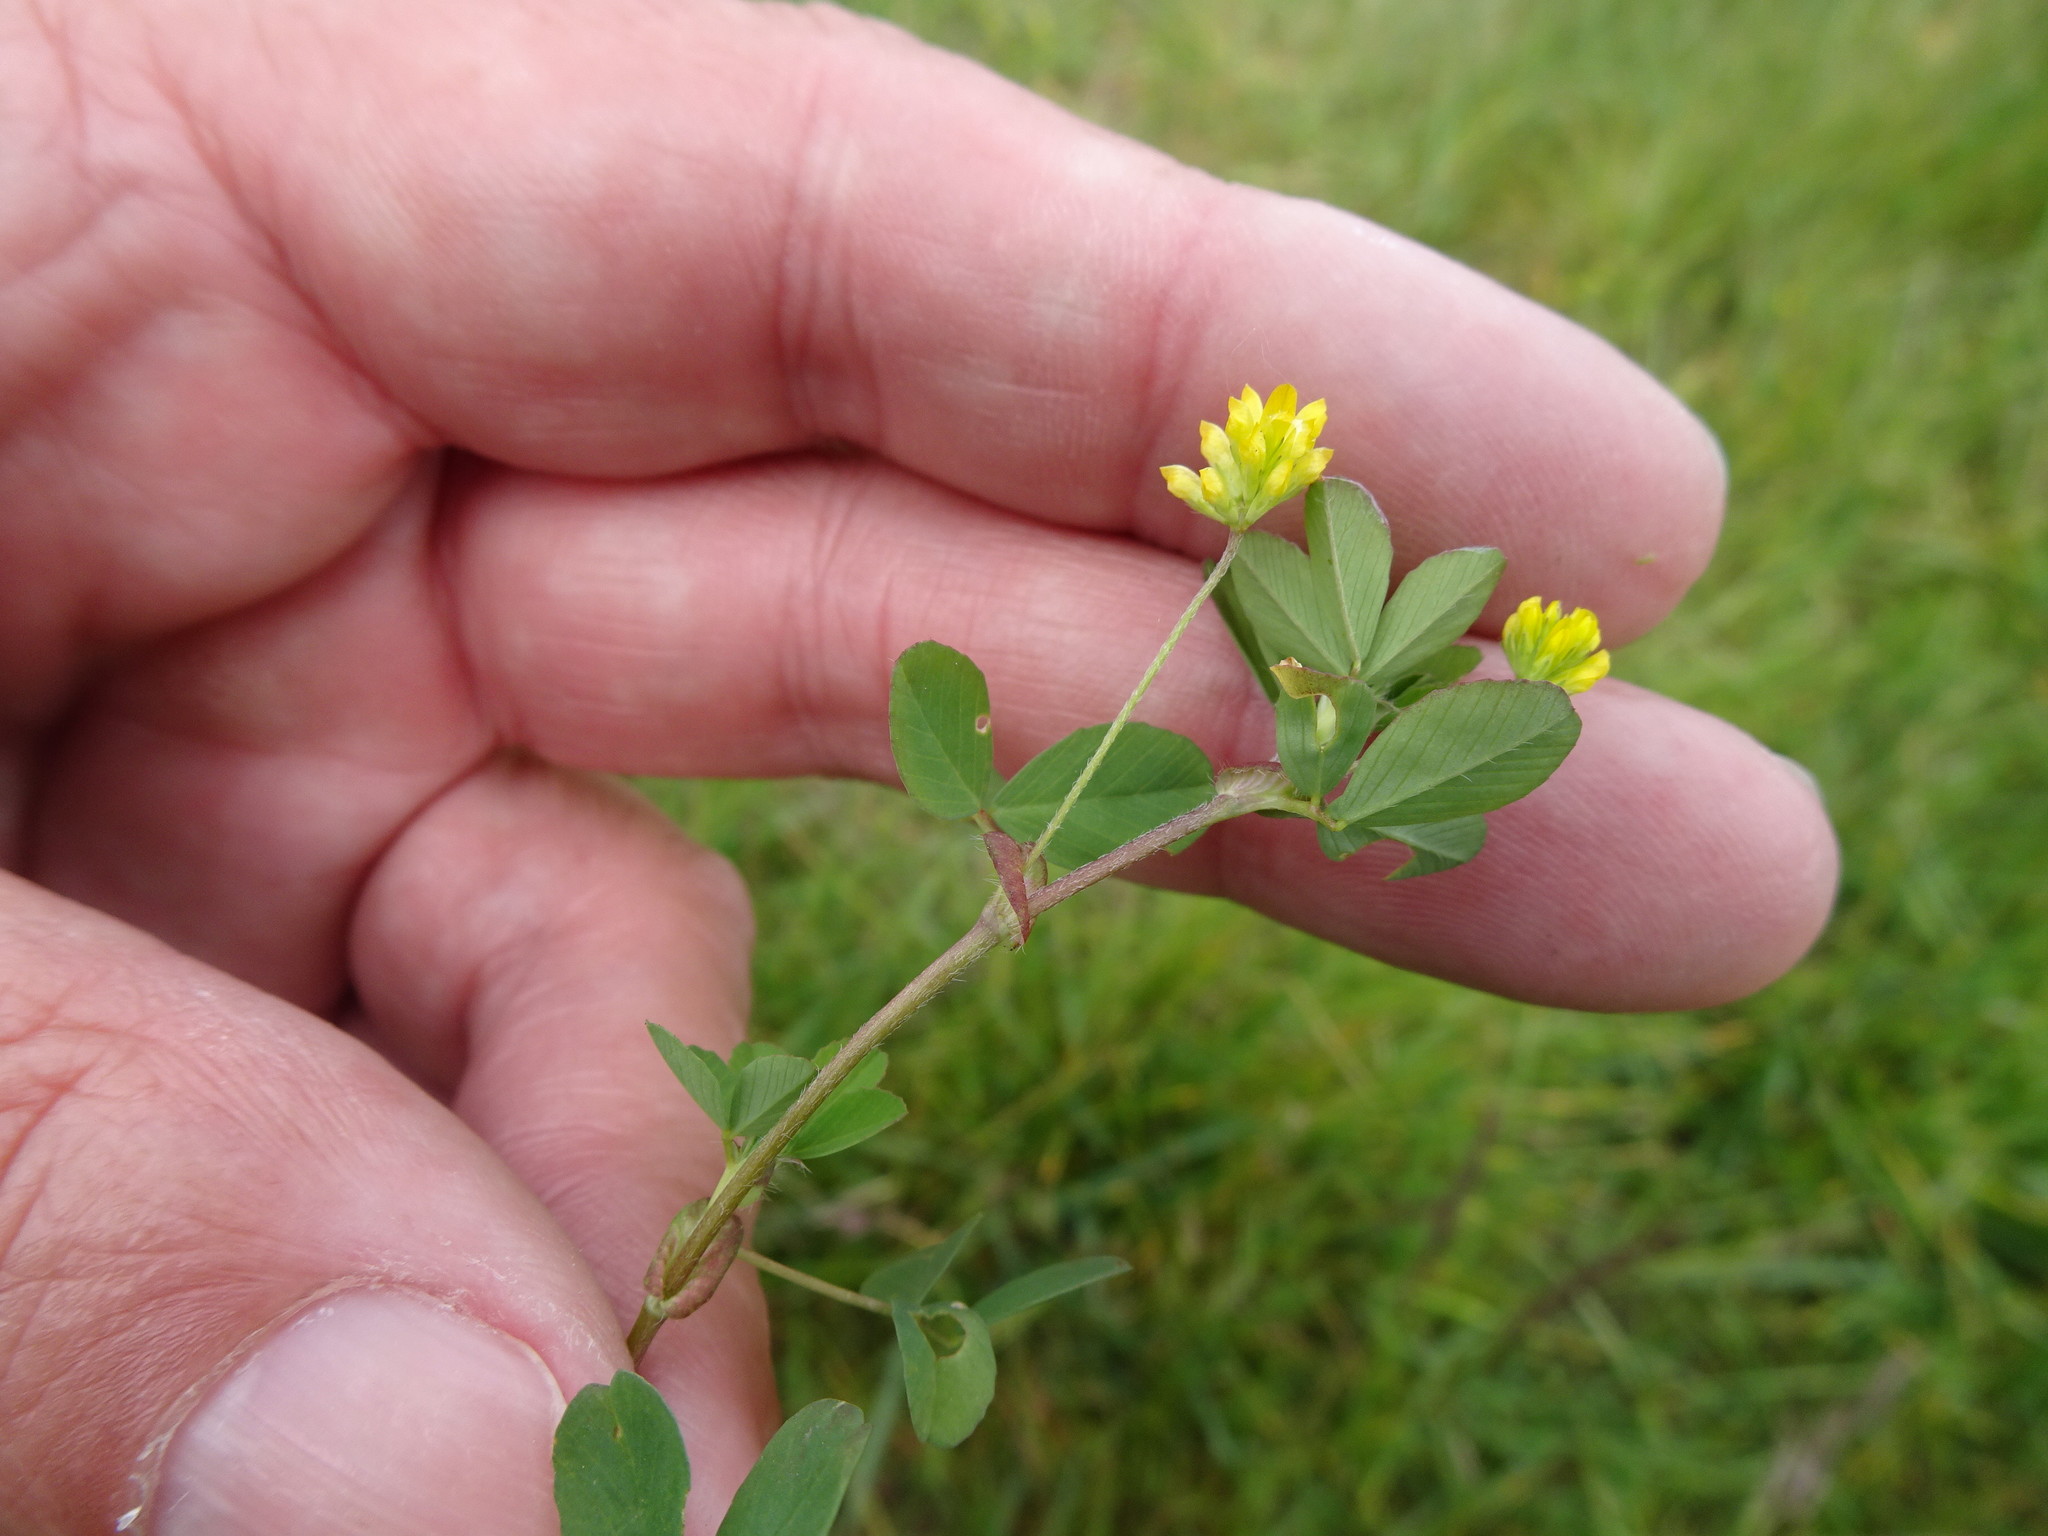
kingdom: Plantae
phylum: Tracheophyta
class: Magnoliopsida
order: Fabales
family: Fabaceae
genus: Trifolium
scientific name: Trifolium dubium
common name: Suckling clover
